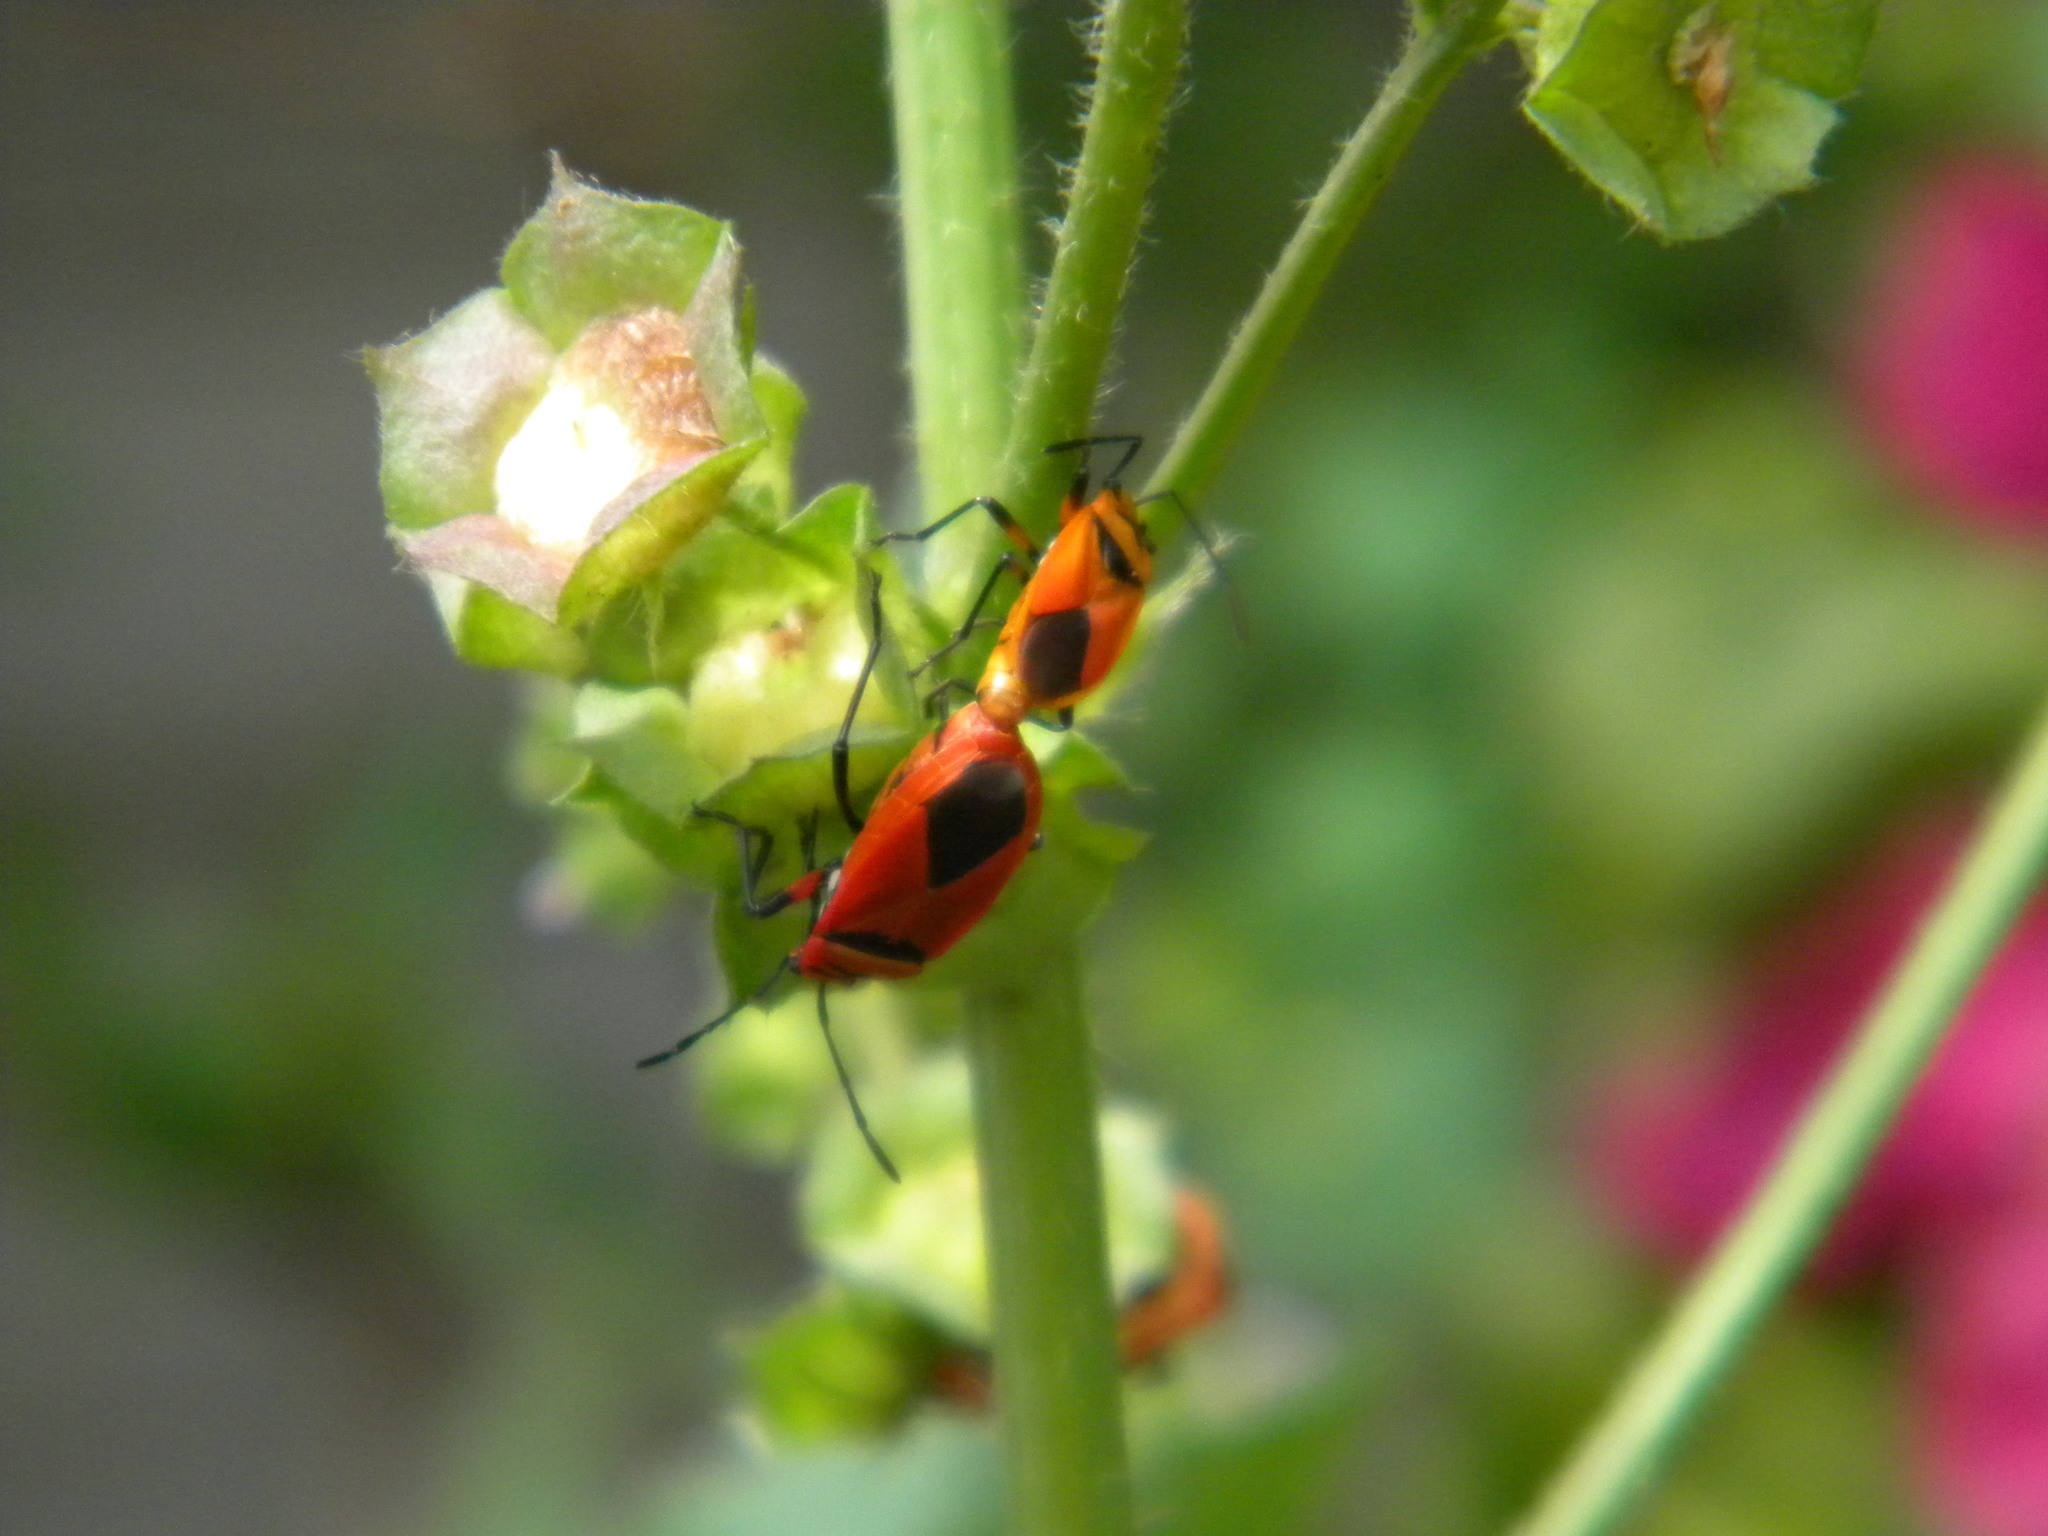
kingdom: Animalia
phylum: Arthropoda
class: Insecta
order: Hemiptera
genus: Cenaeus
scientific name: Cenaeus
